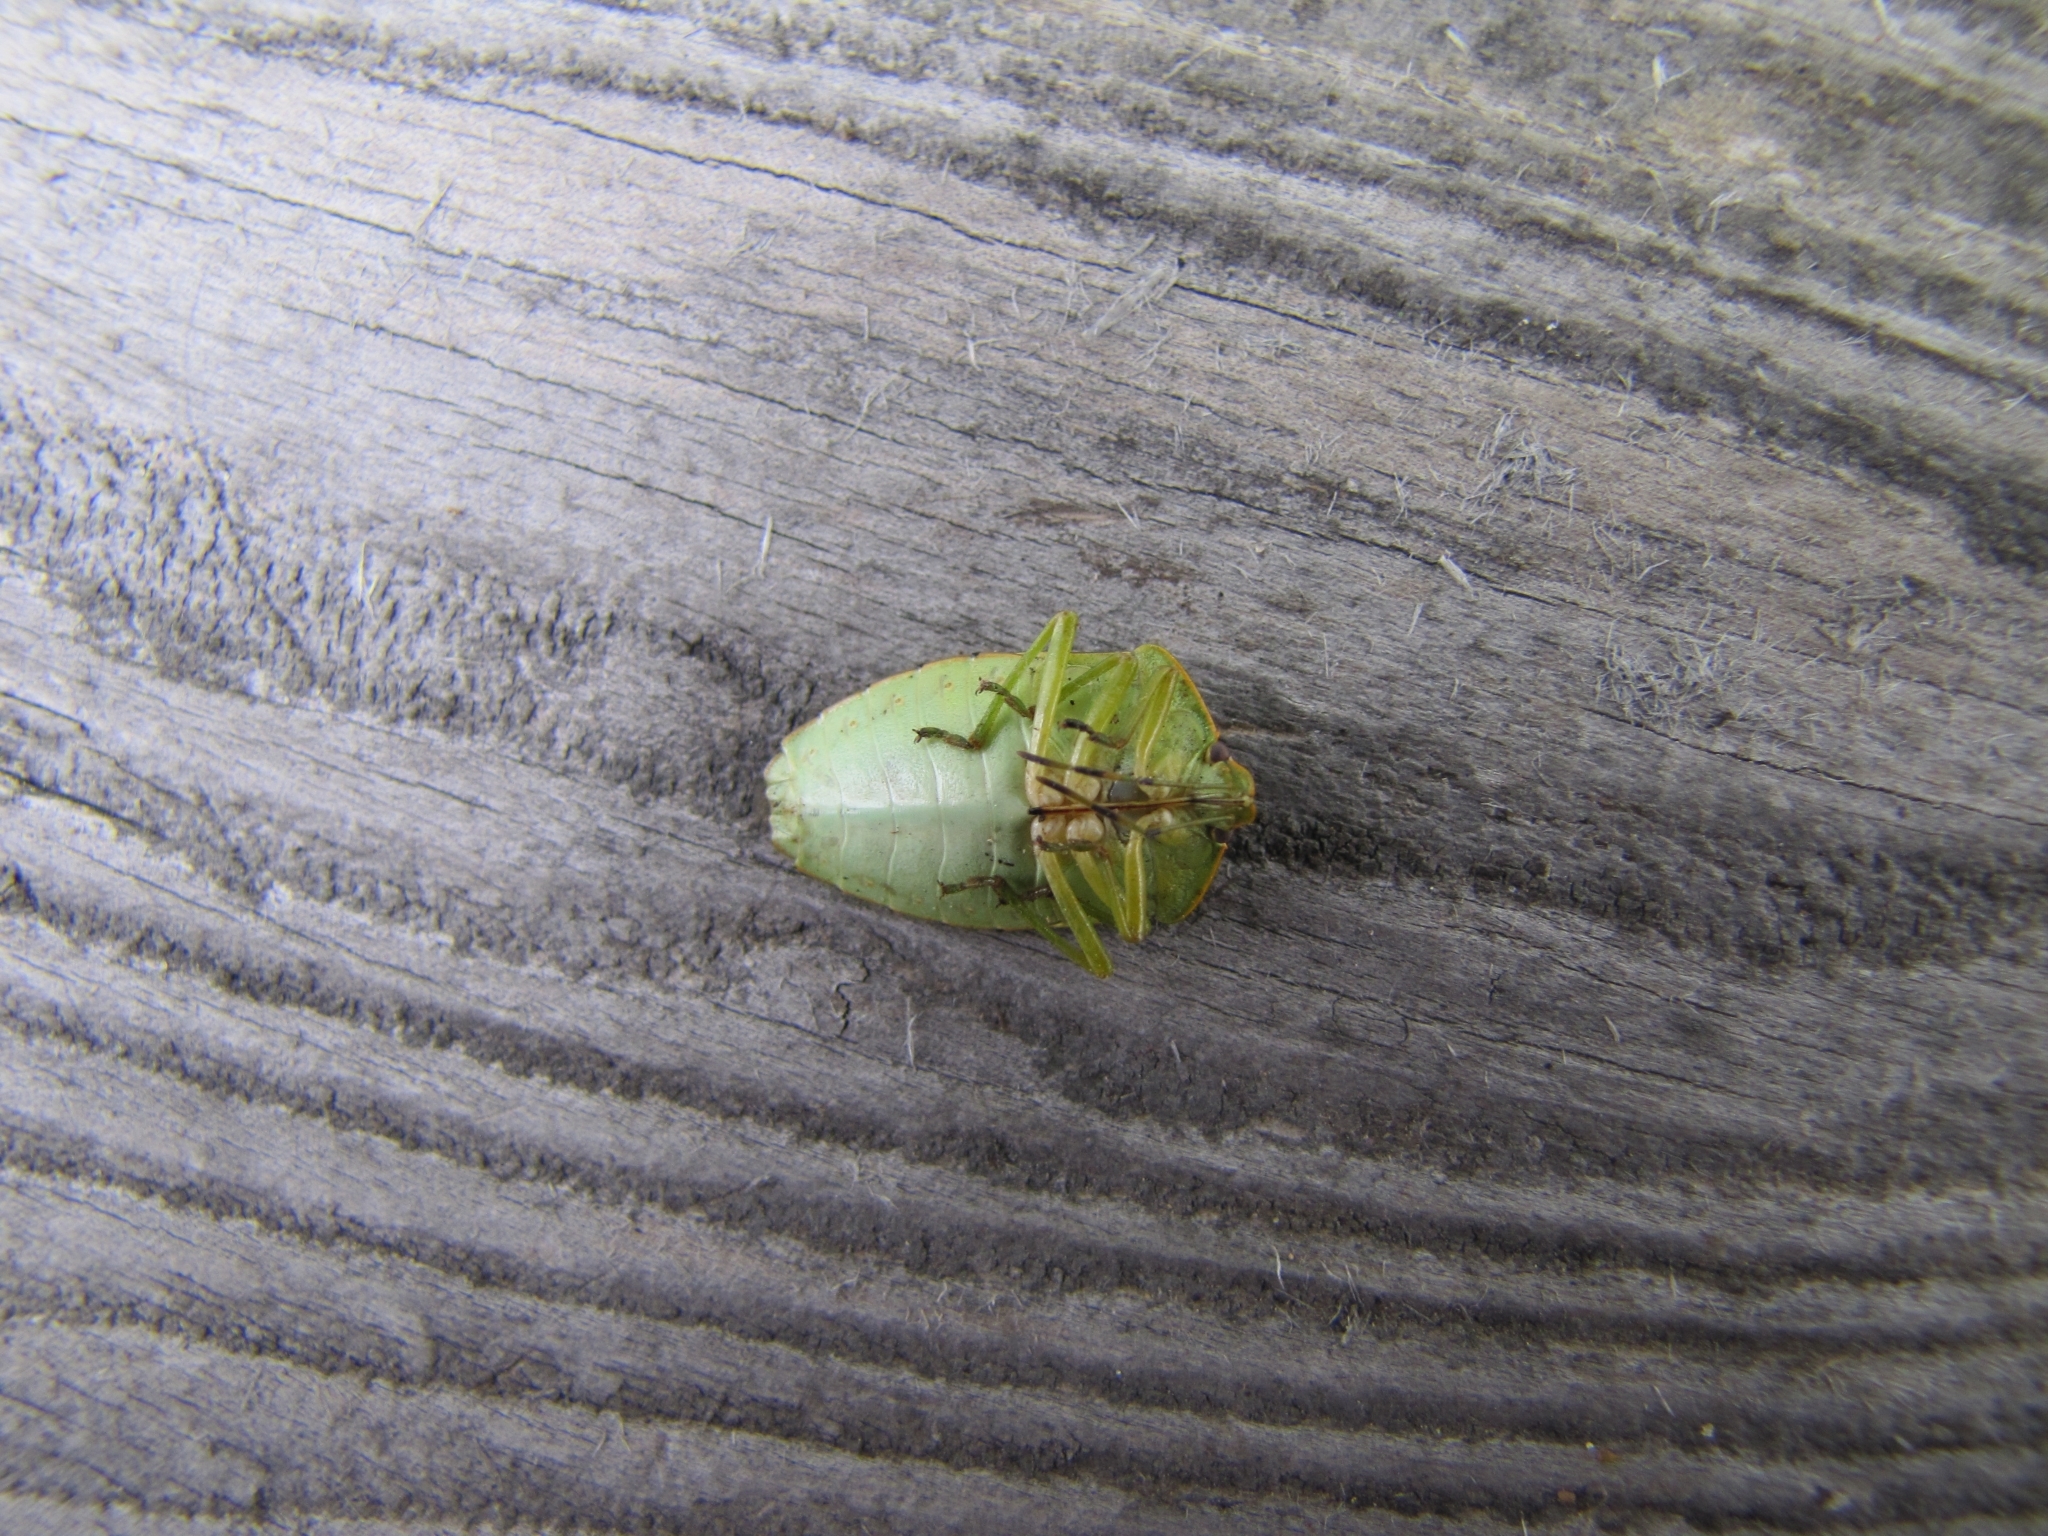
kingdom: Animalia
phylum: Arthropoda
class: Insecta
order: Hemiptera
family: Pentatomidae
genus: Chinavia
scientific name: Chinavia hilaris
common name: Green stink bug
